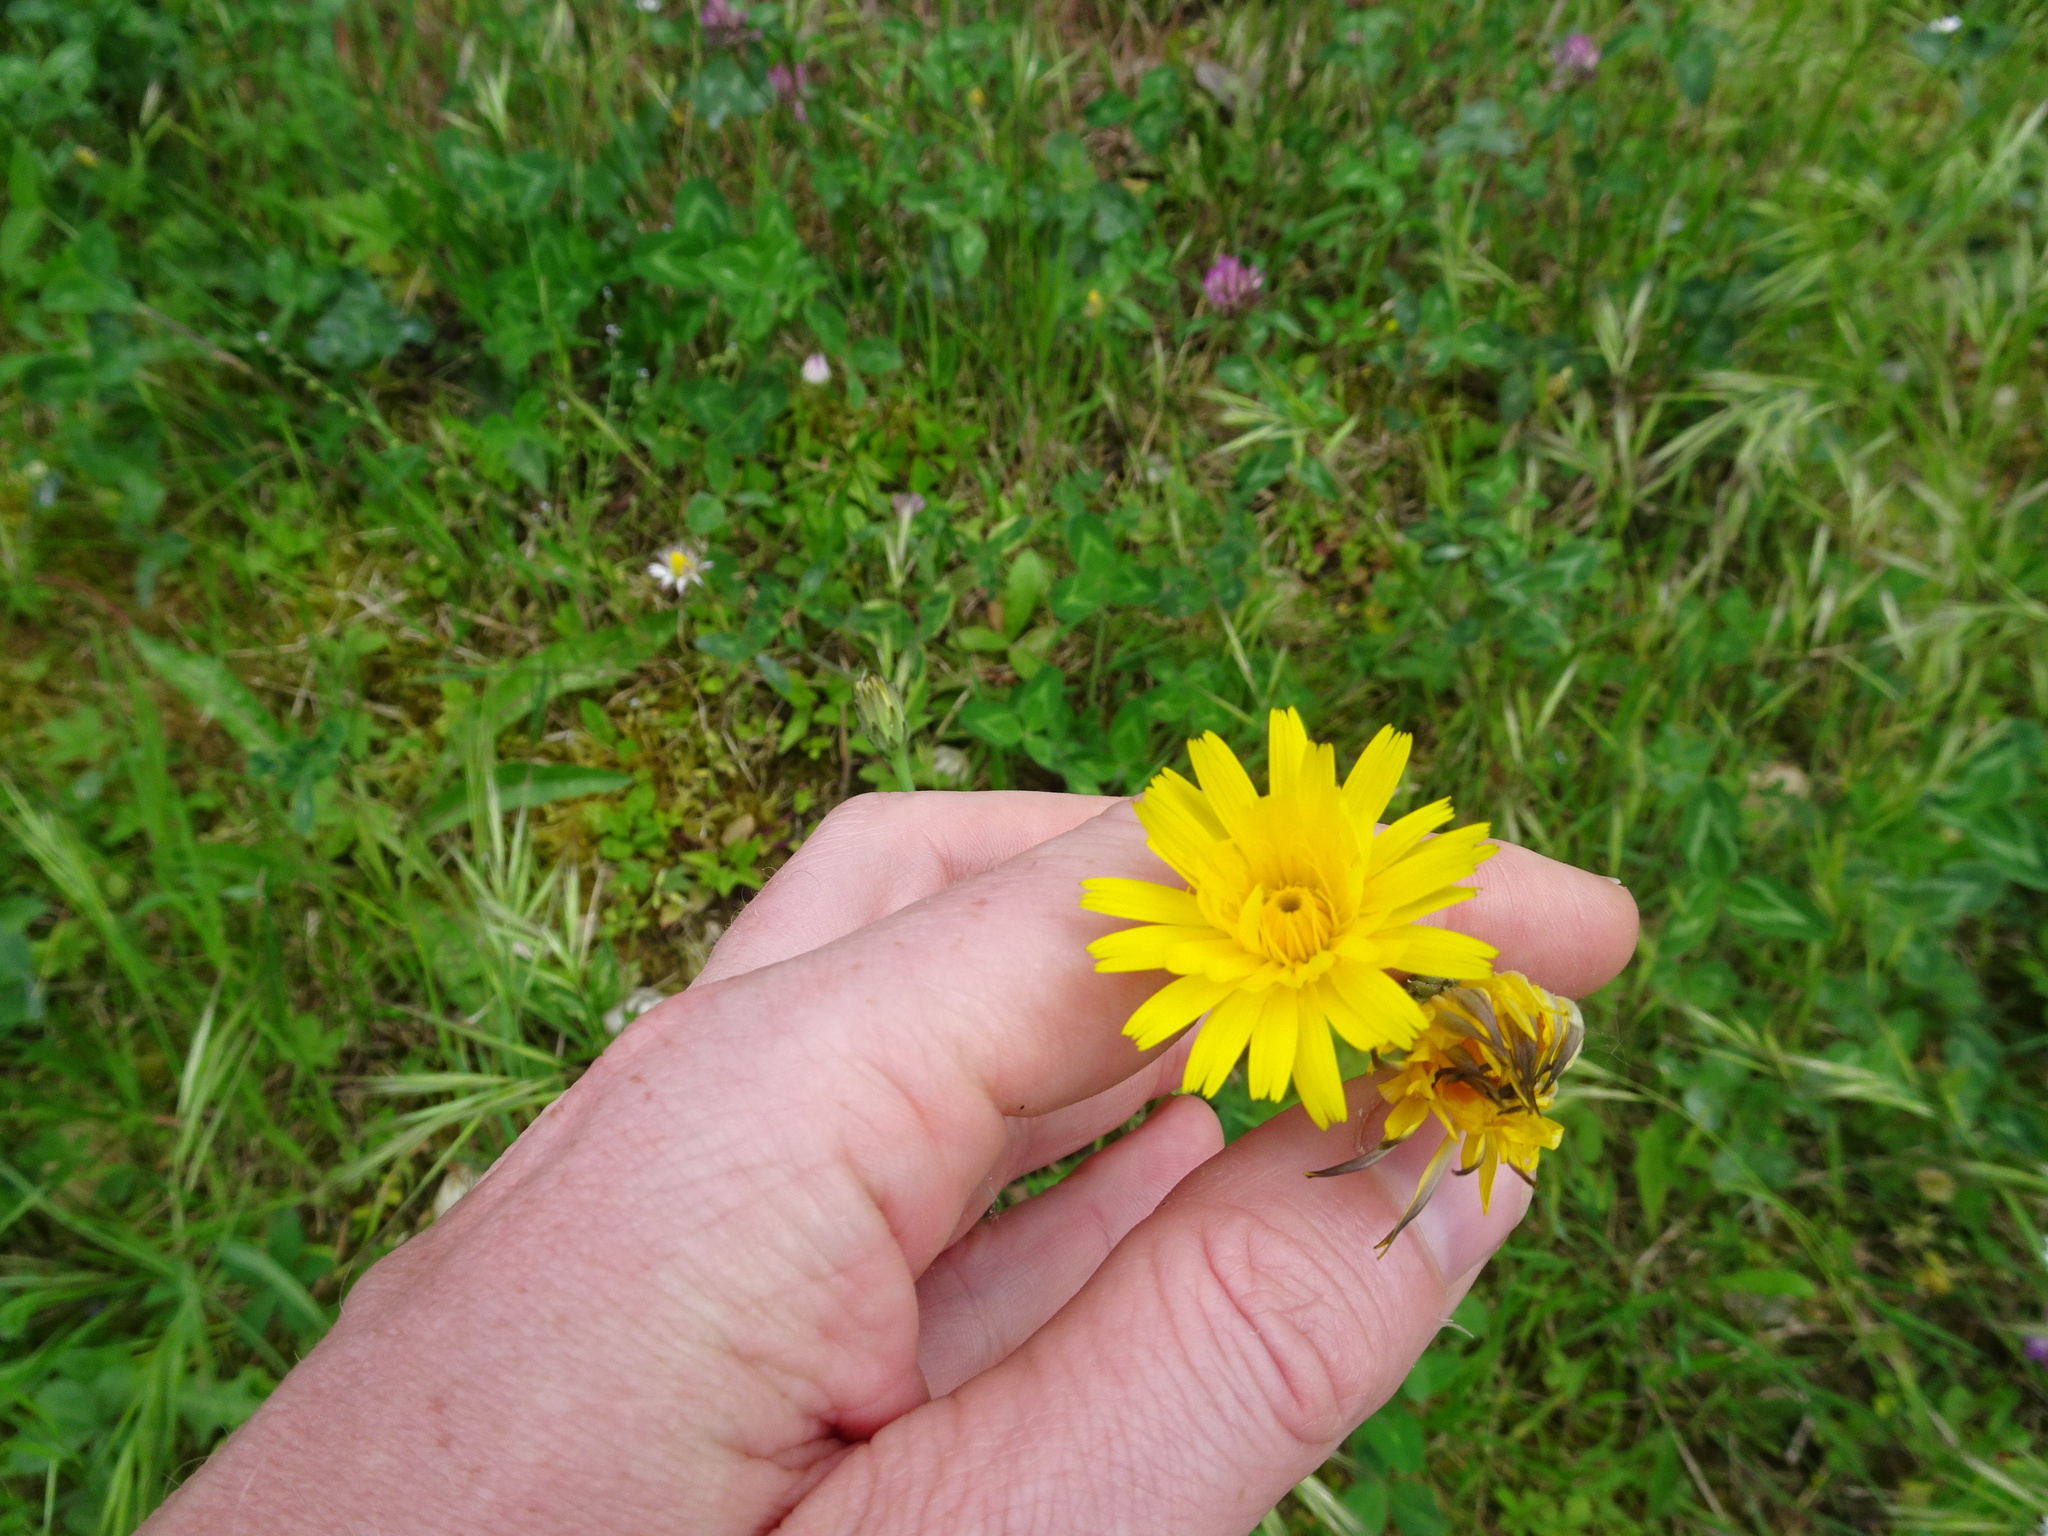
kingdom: Plantae
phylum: Tracheophyta
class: Magnoliopsida
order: Asterales
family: Asteraceae
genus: Hypochaeris
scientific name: Hypochaeris radicata
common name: Flatweed
